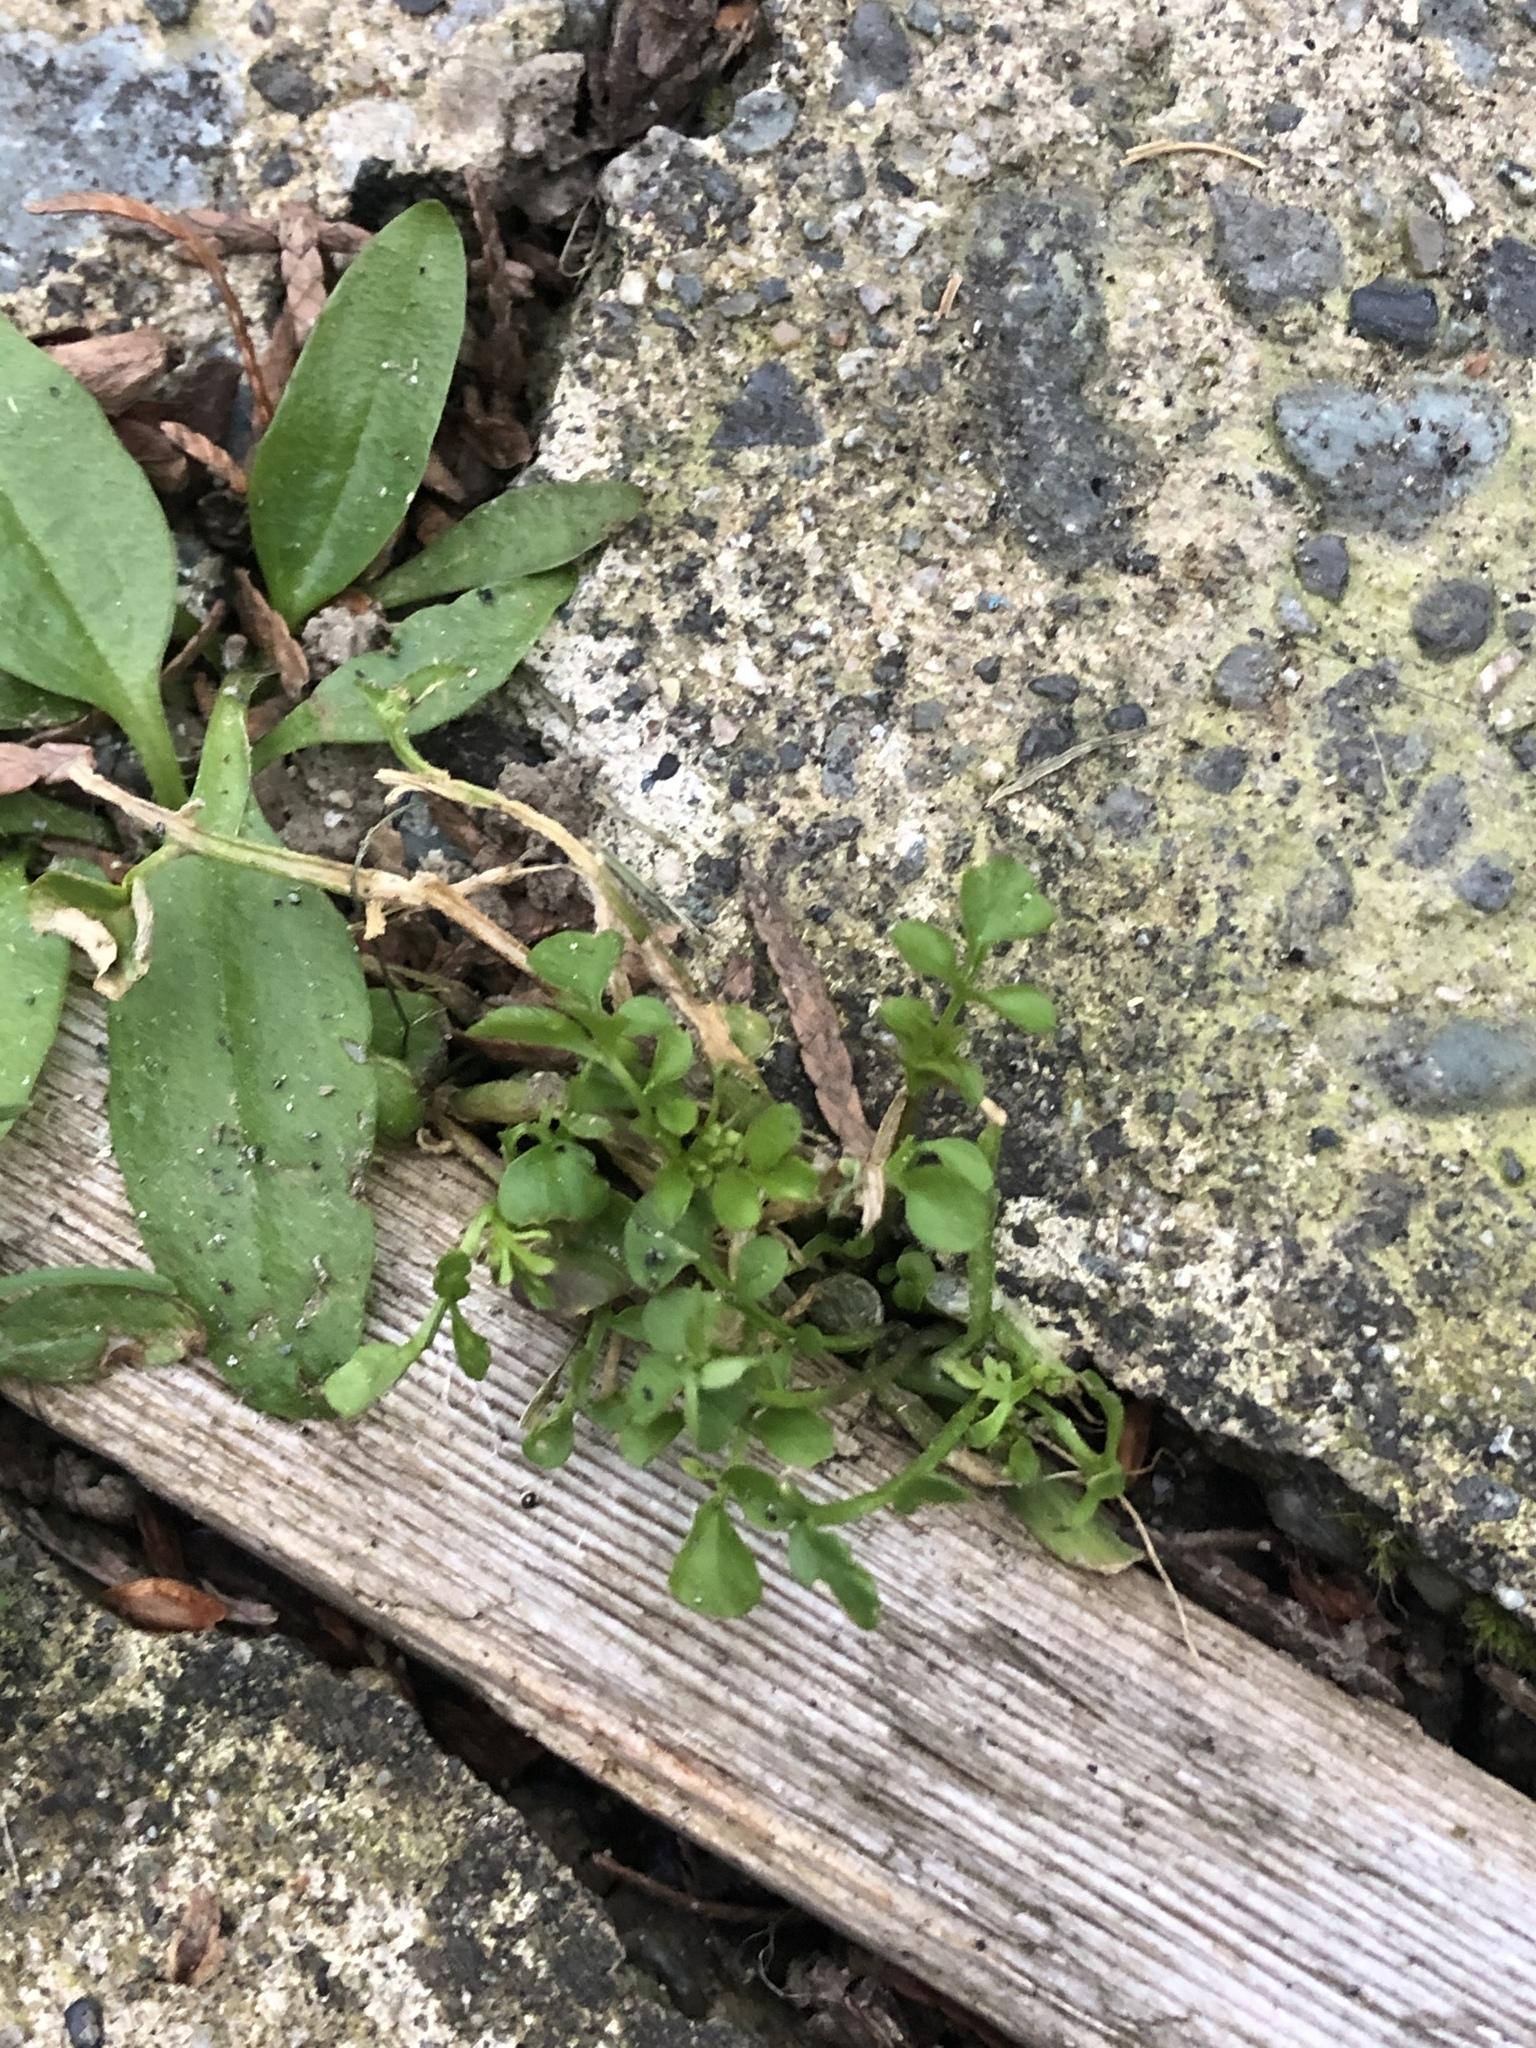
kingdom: Plantae
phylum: Tracheophyta
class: Magnoliopsida
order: Brassicales
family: Brassicaceae
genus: Cardamine
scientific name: Cardamine hirsuta
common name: Hairy bittercress
